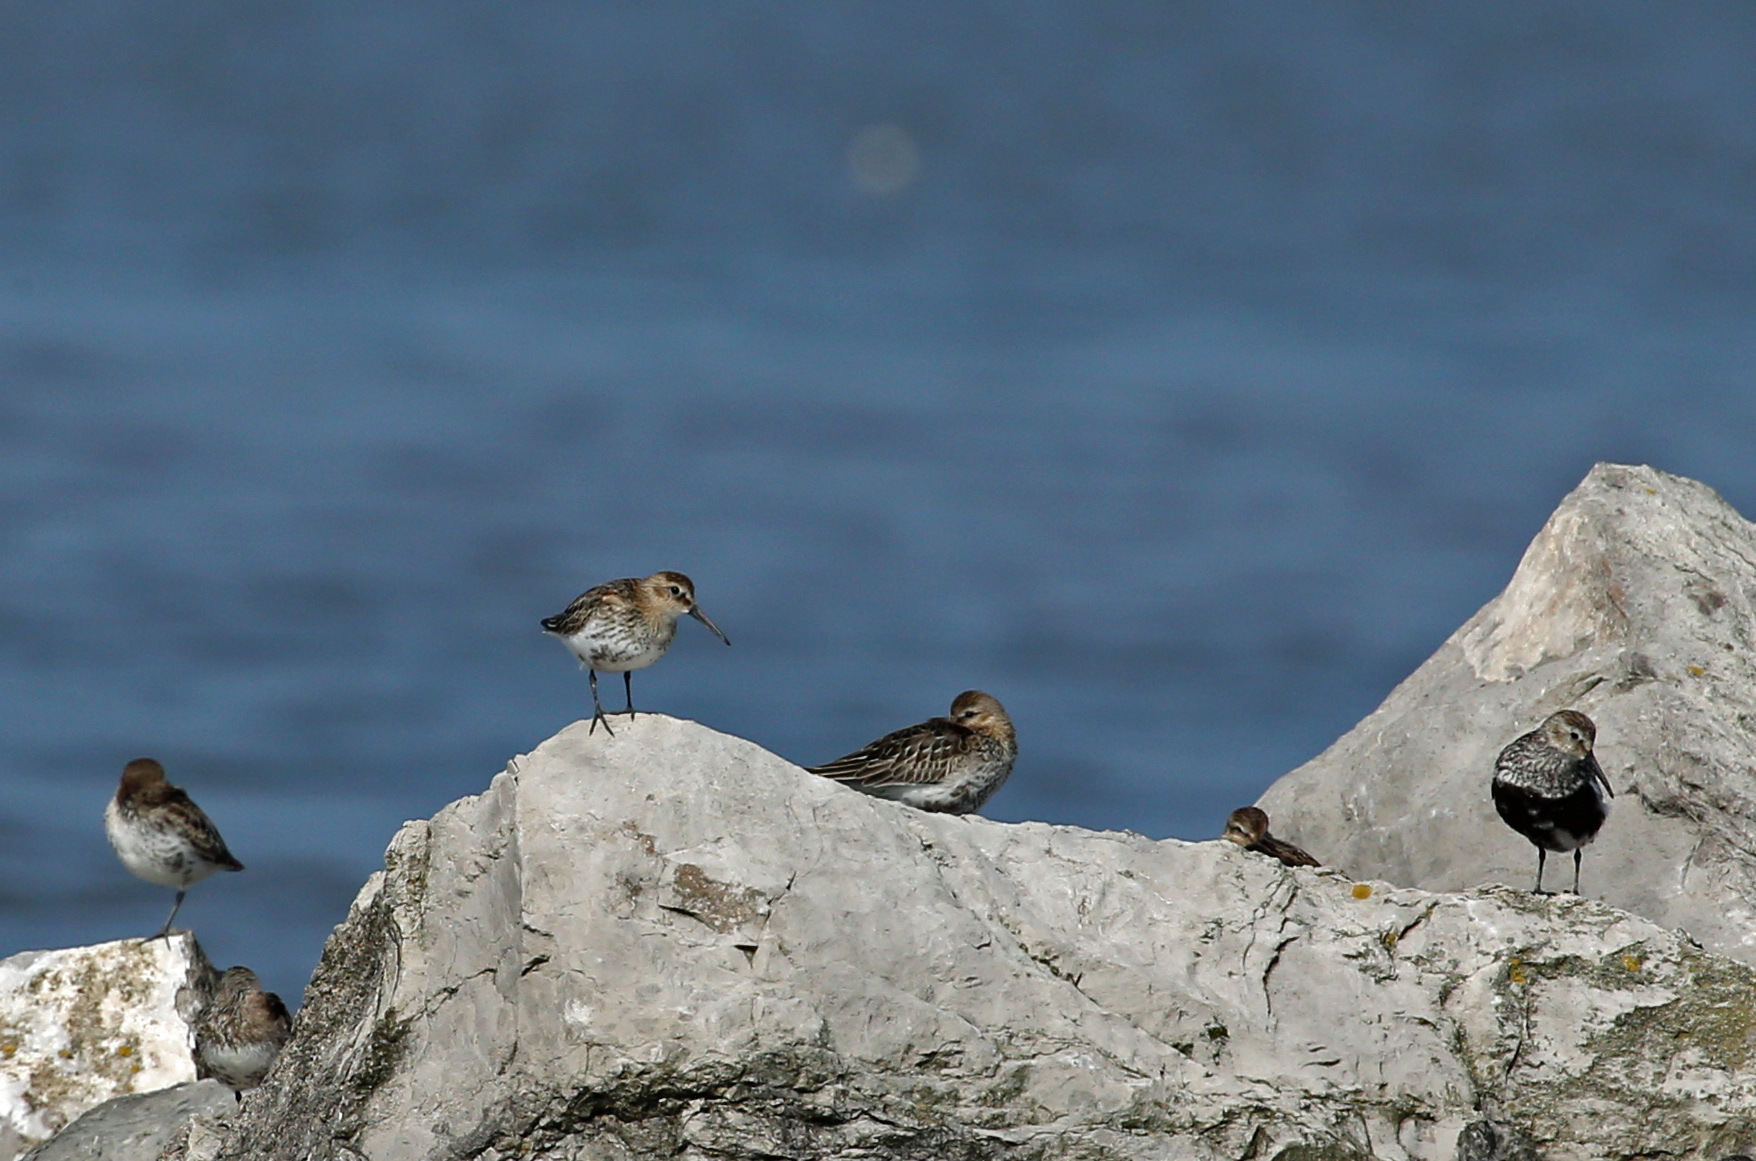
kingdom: Animalia
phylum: Chordata
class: Aves
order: Charadriiformes
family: Scolopacidae
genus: Calidris
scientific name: Calidris alpina
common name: Dunlin
